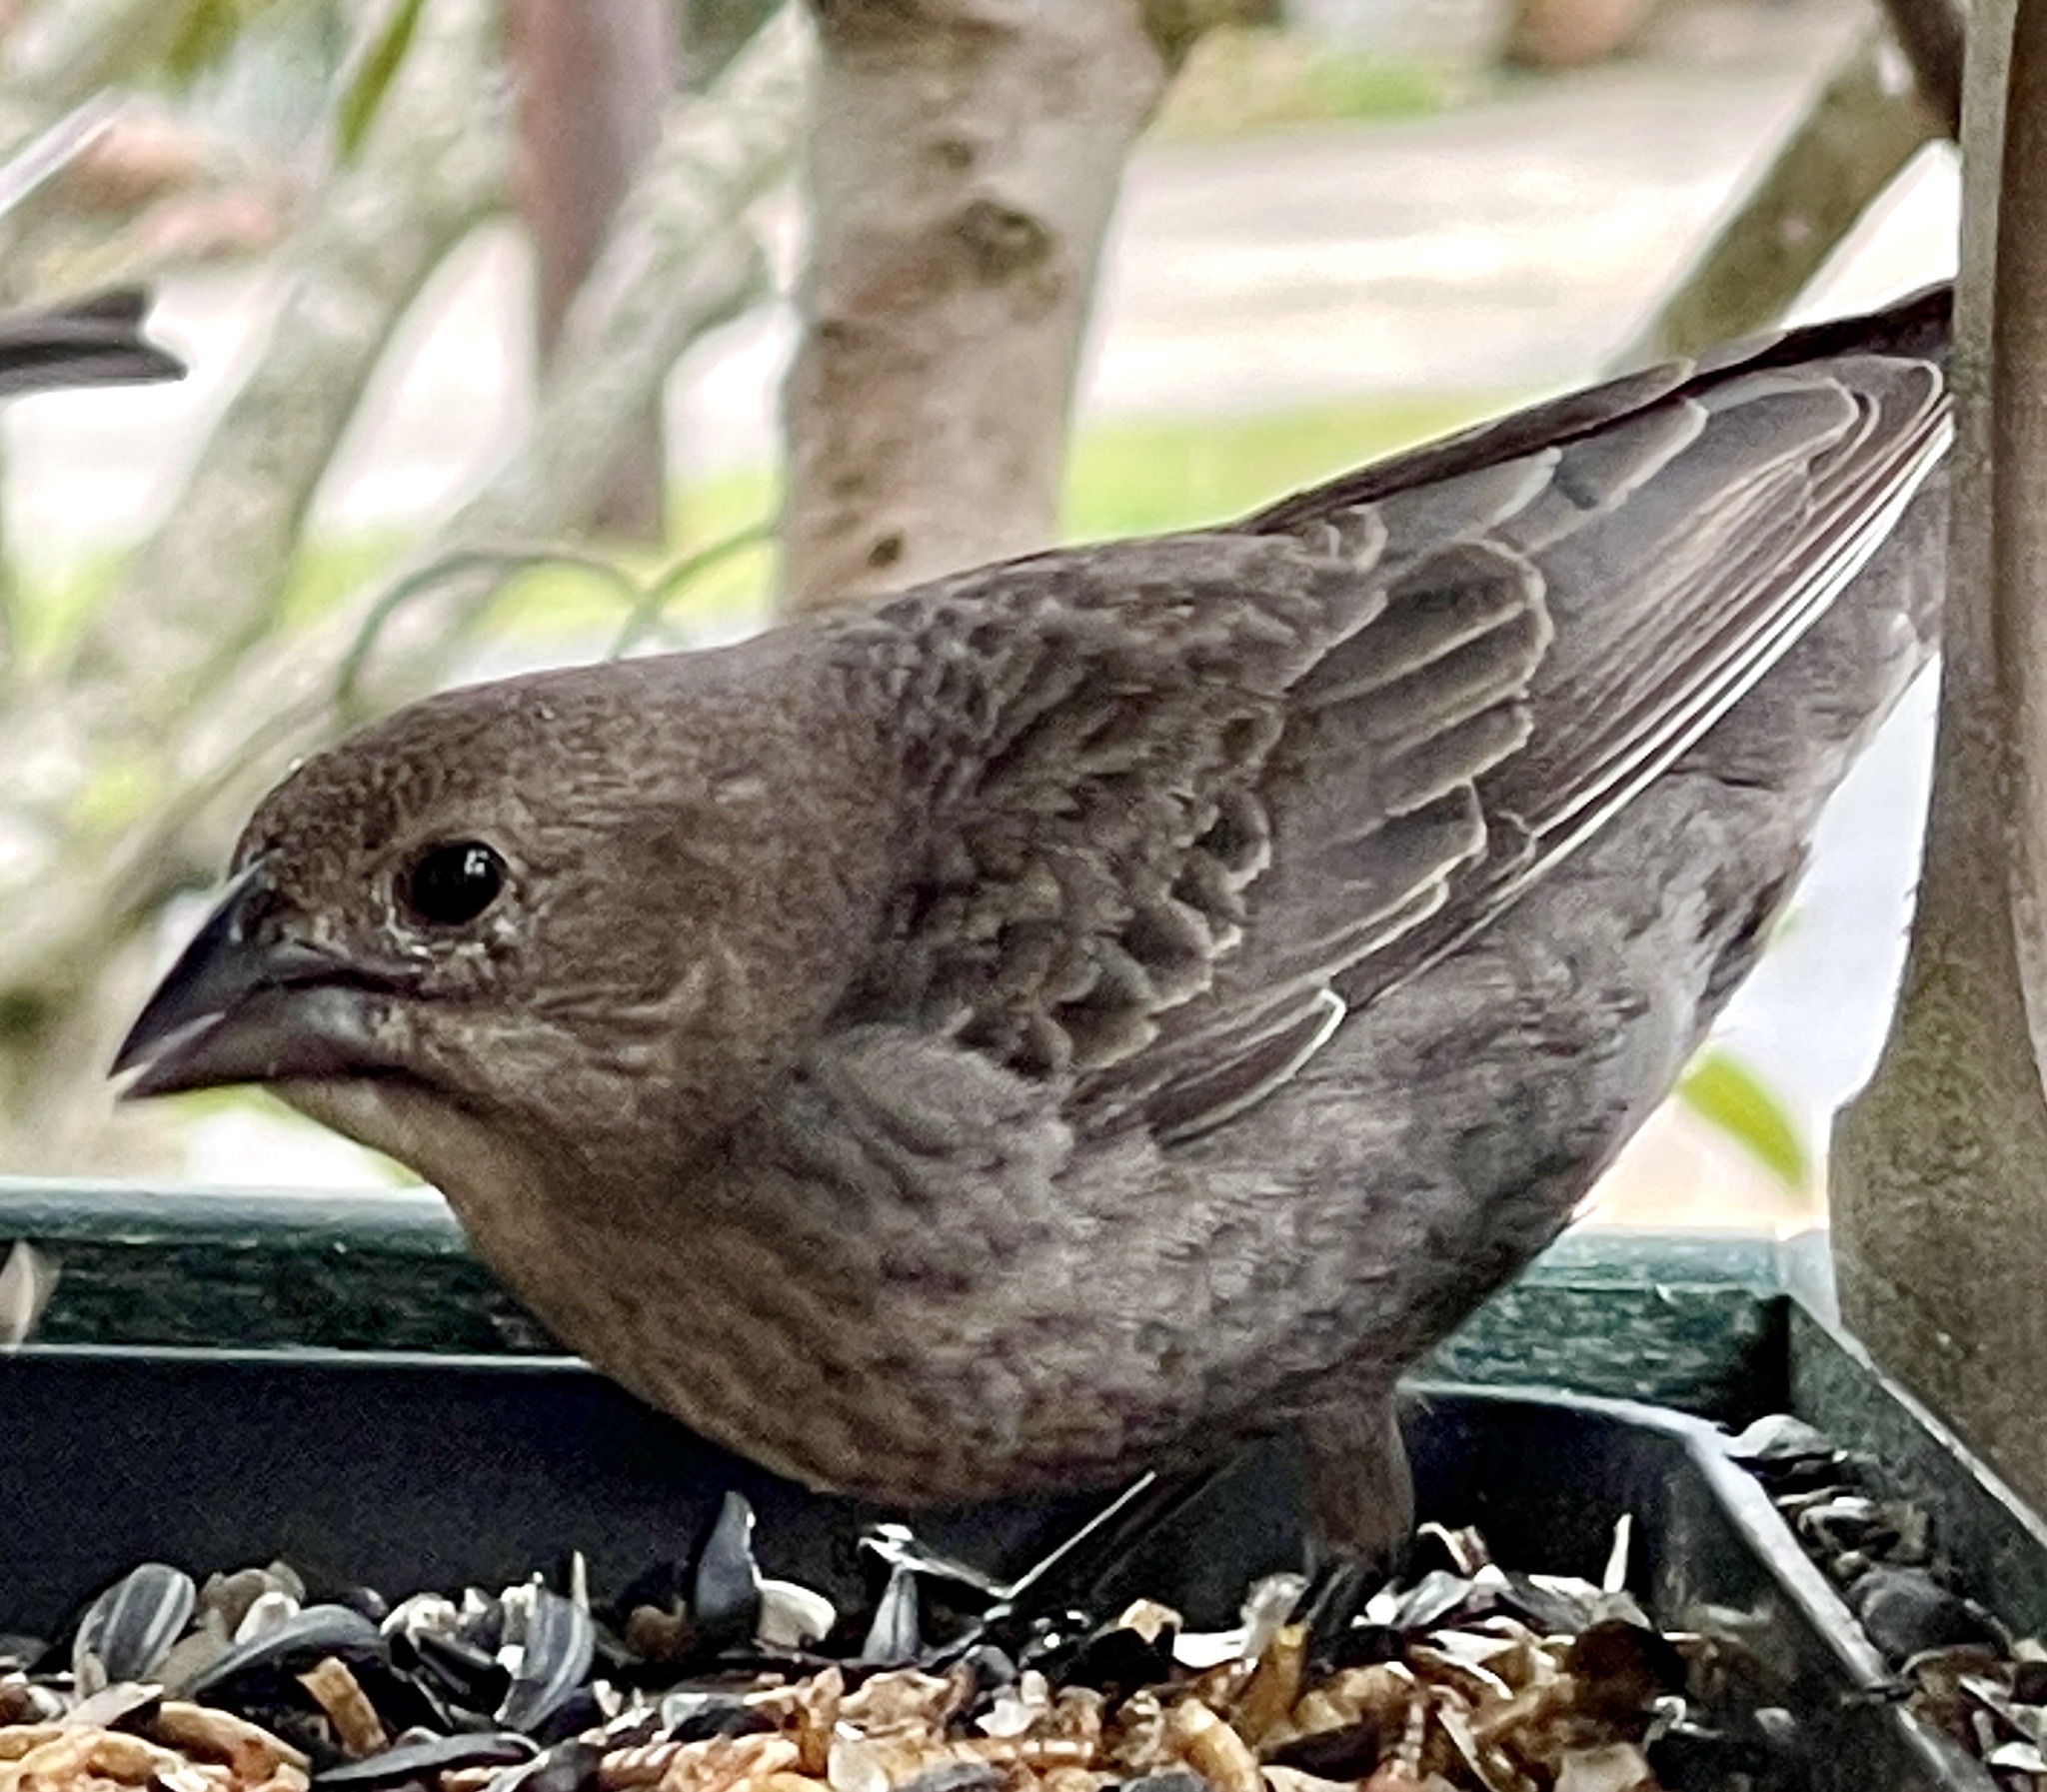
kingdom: Animalia
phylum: Chordata
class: Aves
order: Passeriformes
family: Icteridae
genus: Molothrus
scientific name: Molothrus ater
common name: Brown-headed cowbird
